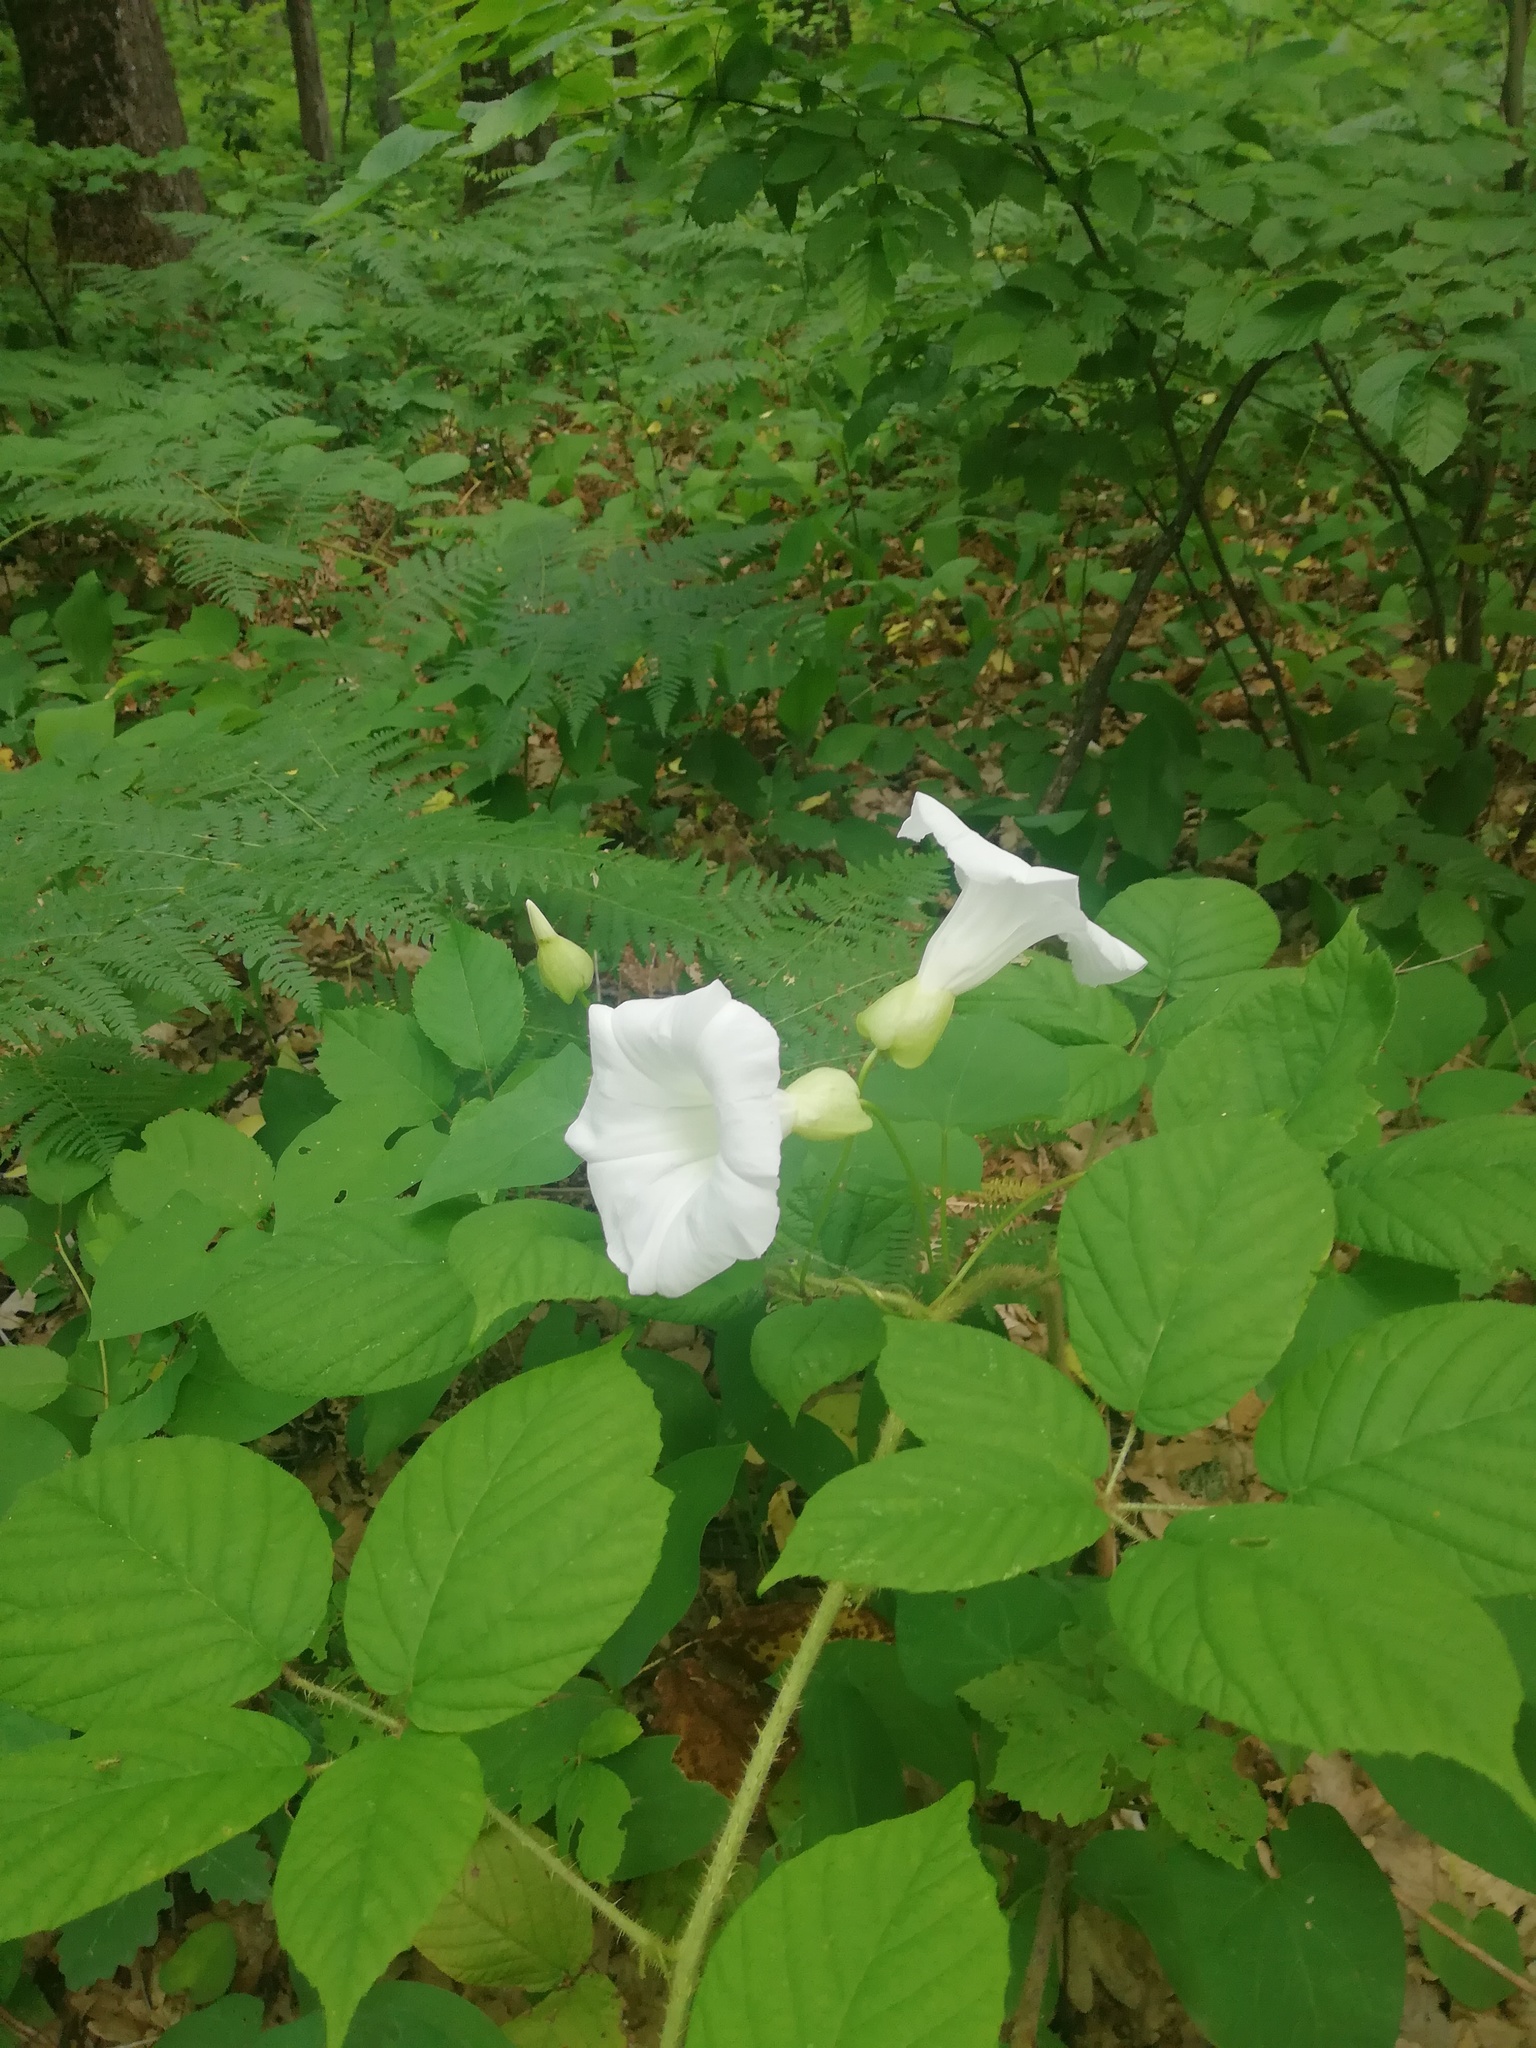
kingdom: Plantae
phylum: Tracheophyta
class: Magnoliopsida
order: Solanales
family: Convolvulaceae
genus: Calystegia
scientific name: Calystegia silvatica
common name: Large bindweed
